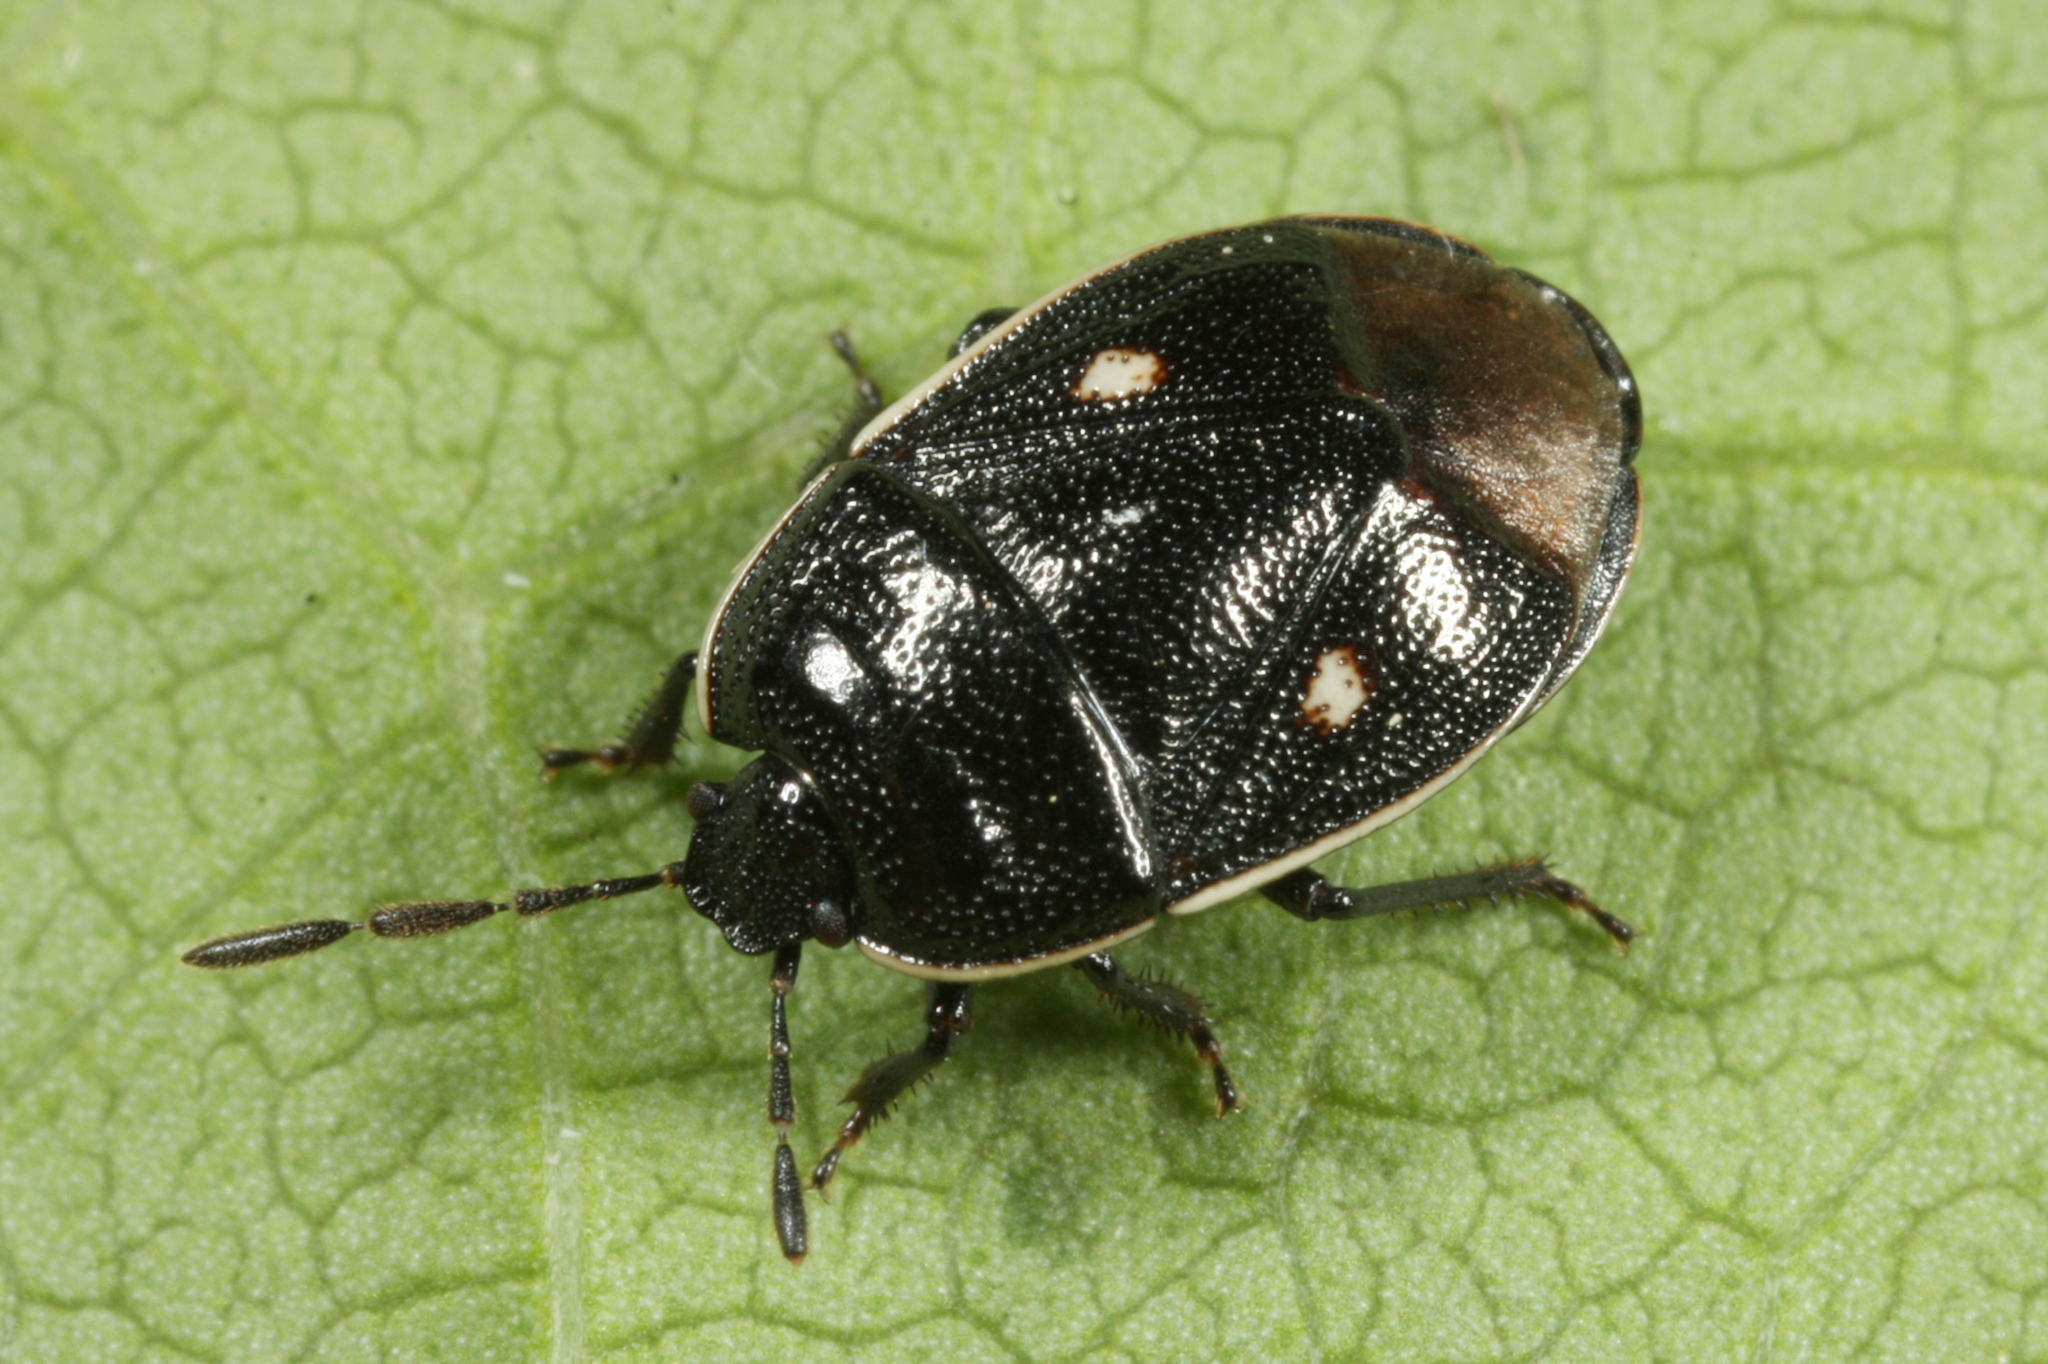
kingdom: Animalia
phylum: Arthropoda
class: Insecta
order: Hemiptera
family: Cydnidae
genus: Adomerus
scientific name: Adomerus biguttatus
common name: Cow wheat shieldbug
